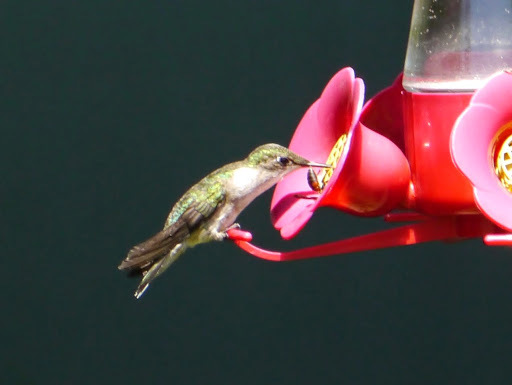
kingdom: Animalia
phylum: Chordata
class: Aves
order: Apodiformes
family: Trochilidae
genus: Archilochus
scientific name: Archilochus colubris
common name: Ruby-throated hummingbird
